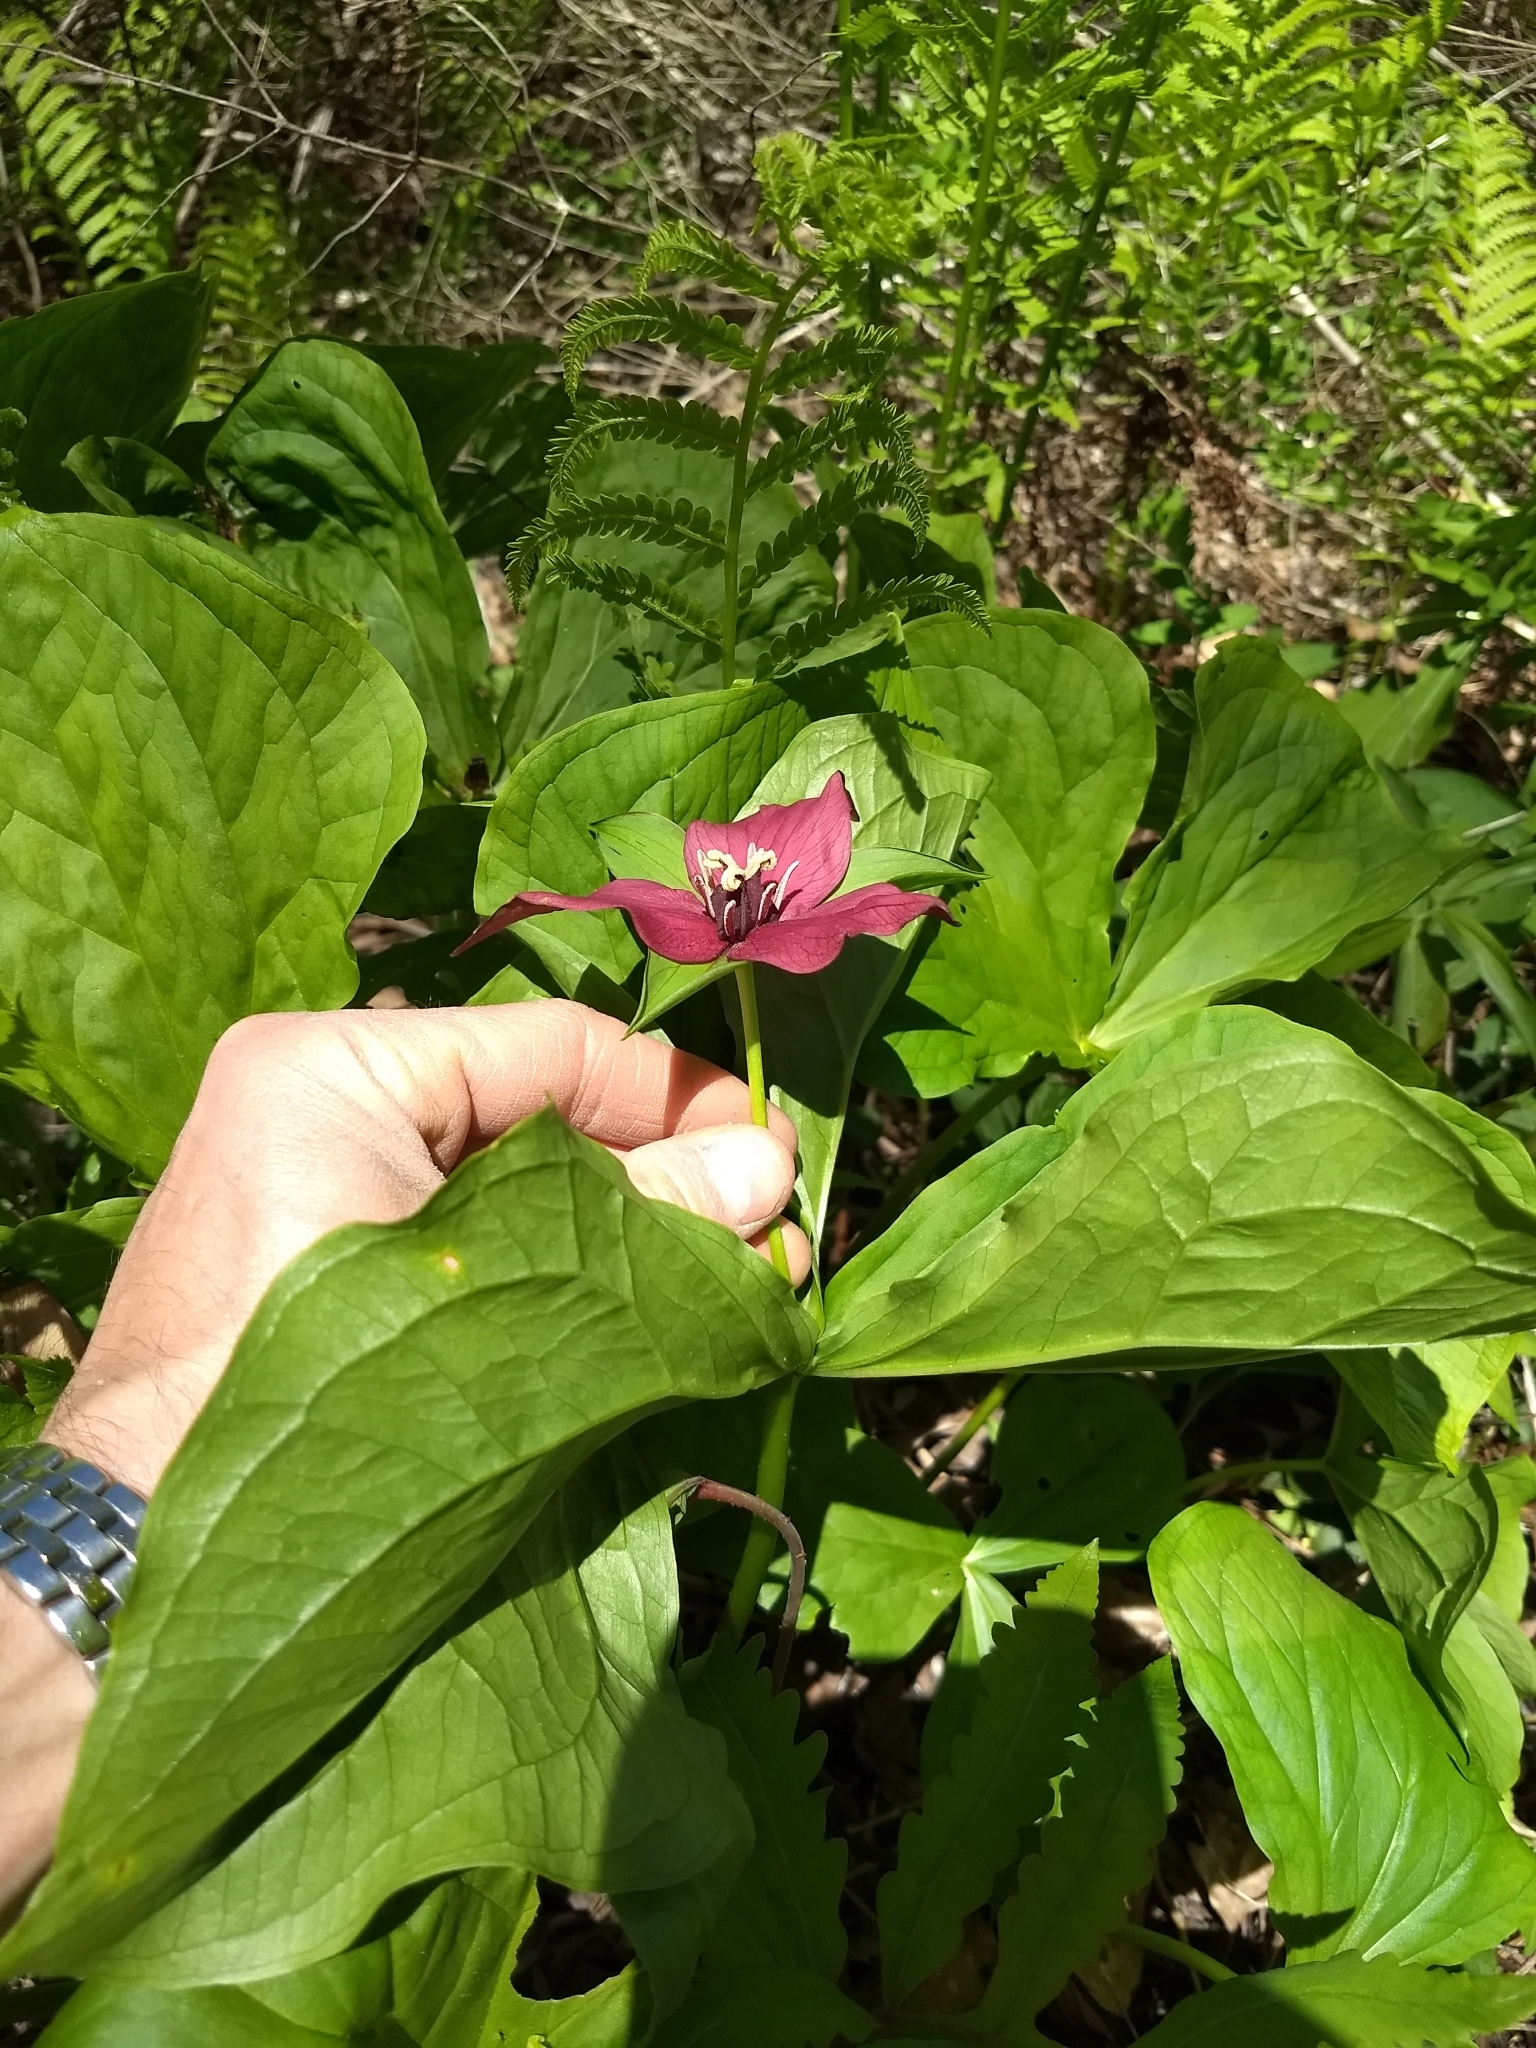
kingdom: Plantae
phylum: Tracheophyta
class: Liliopsida
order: Liliales
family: Melanthiaceae
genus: Trillium
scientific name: Trillium erectum
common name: Purple trillium
